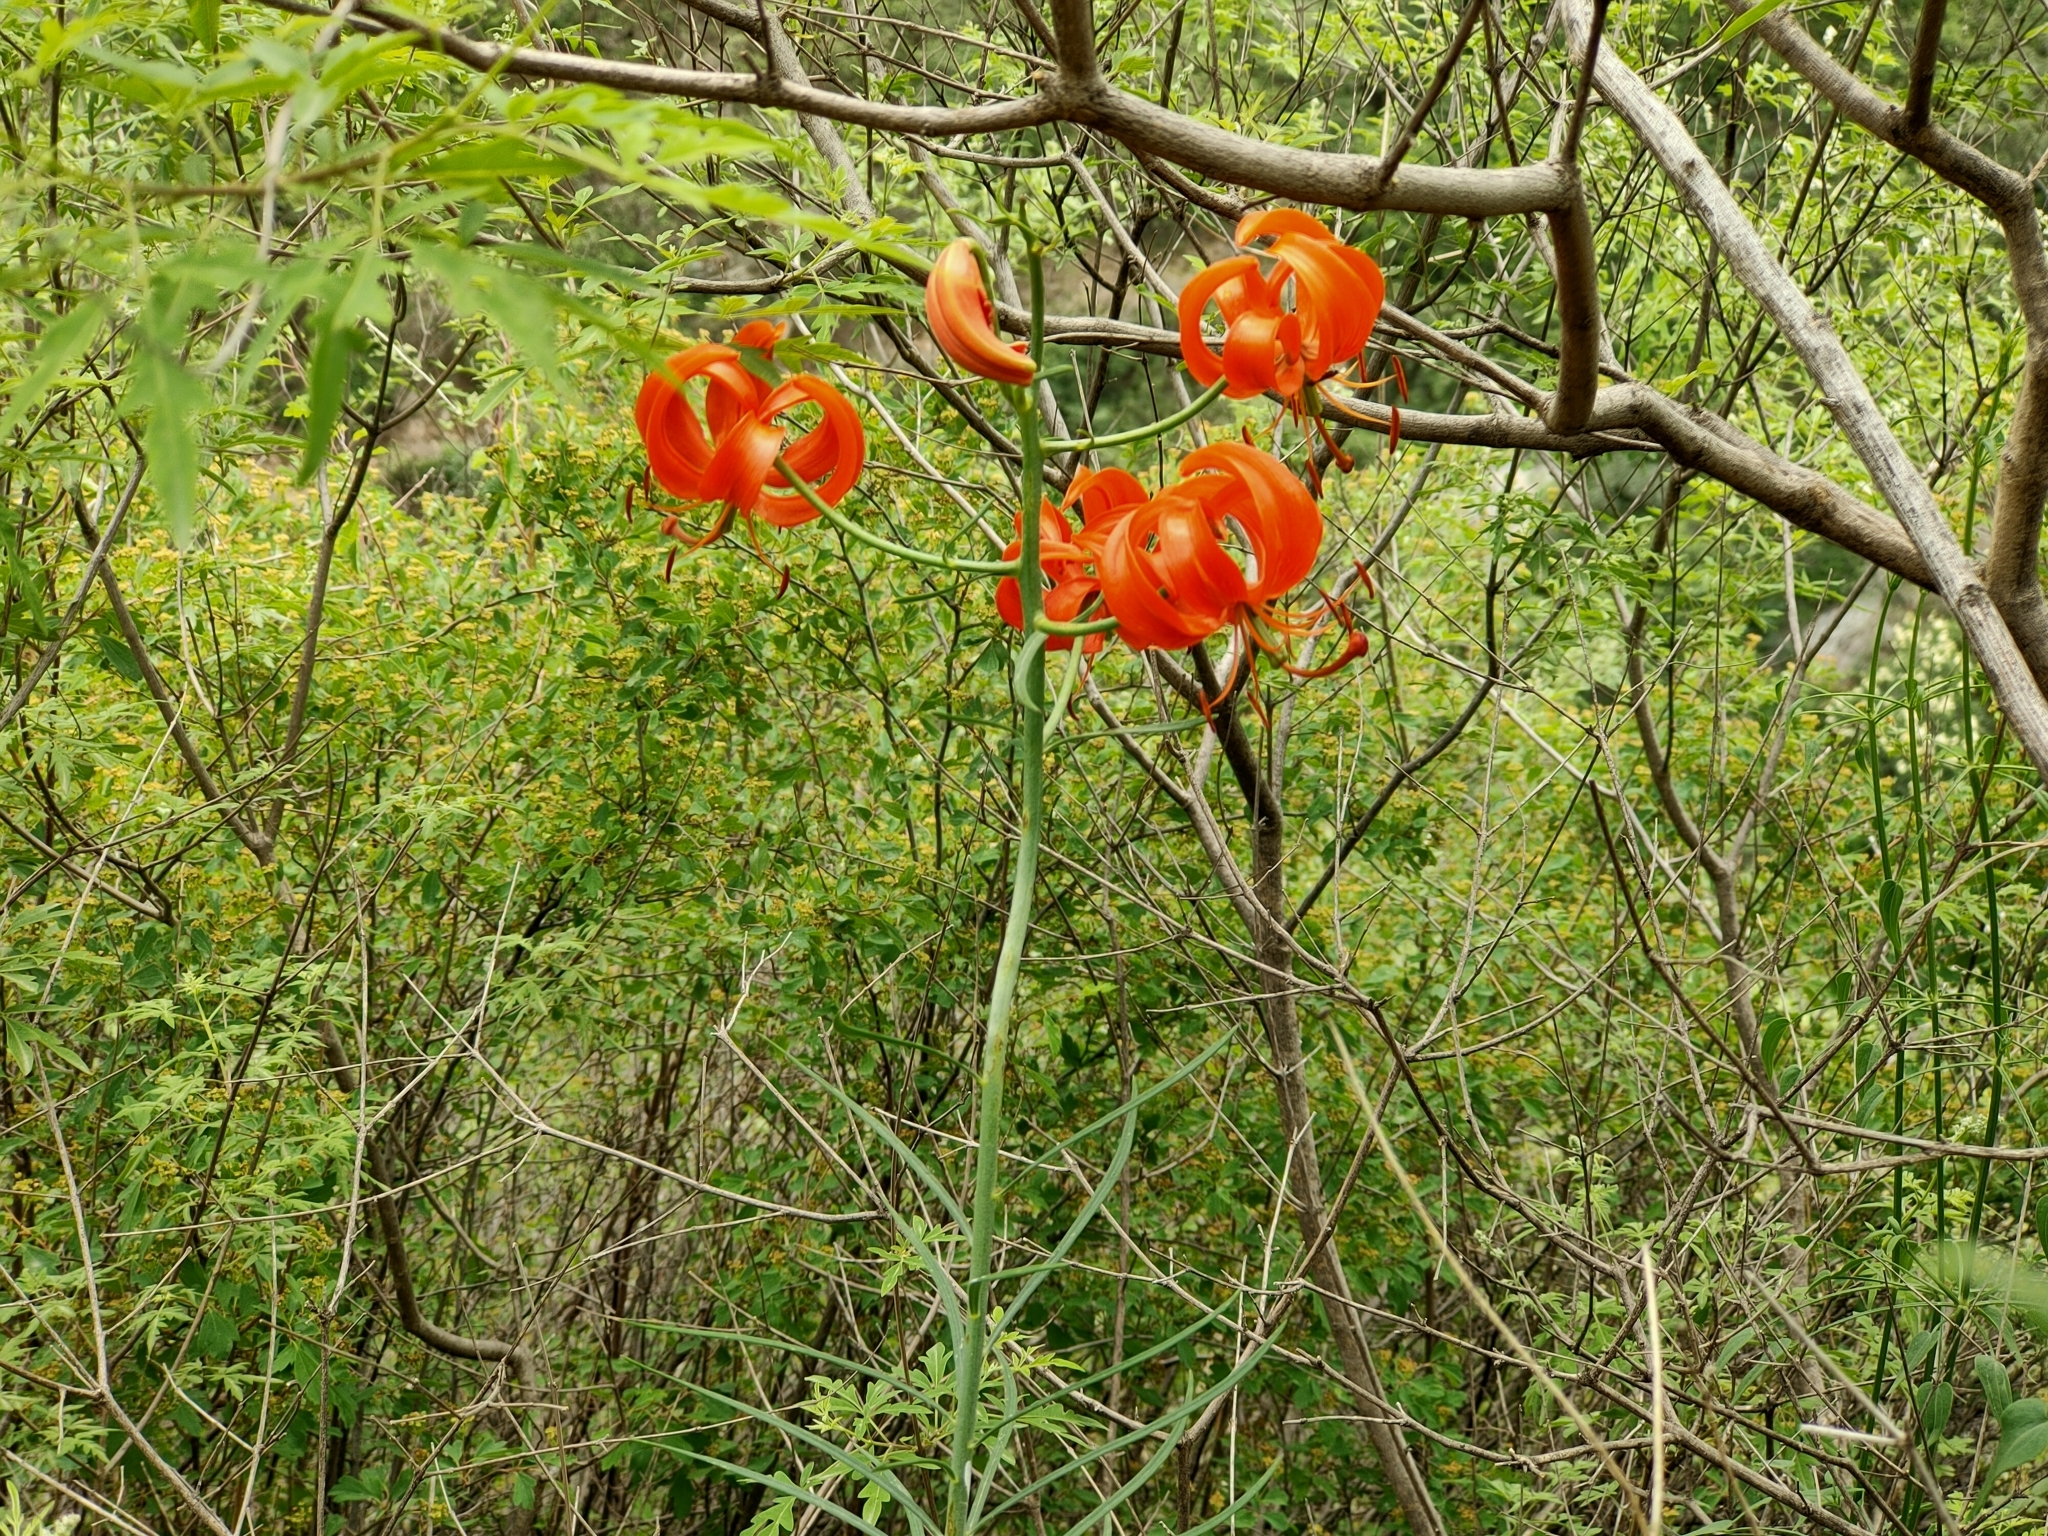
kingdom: Plantae
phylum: Tracheophyta
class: Liliopsida
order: Liliales
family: Liliaceae
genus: Lilium
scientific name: Lilium pumilum
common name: Coral lily
